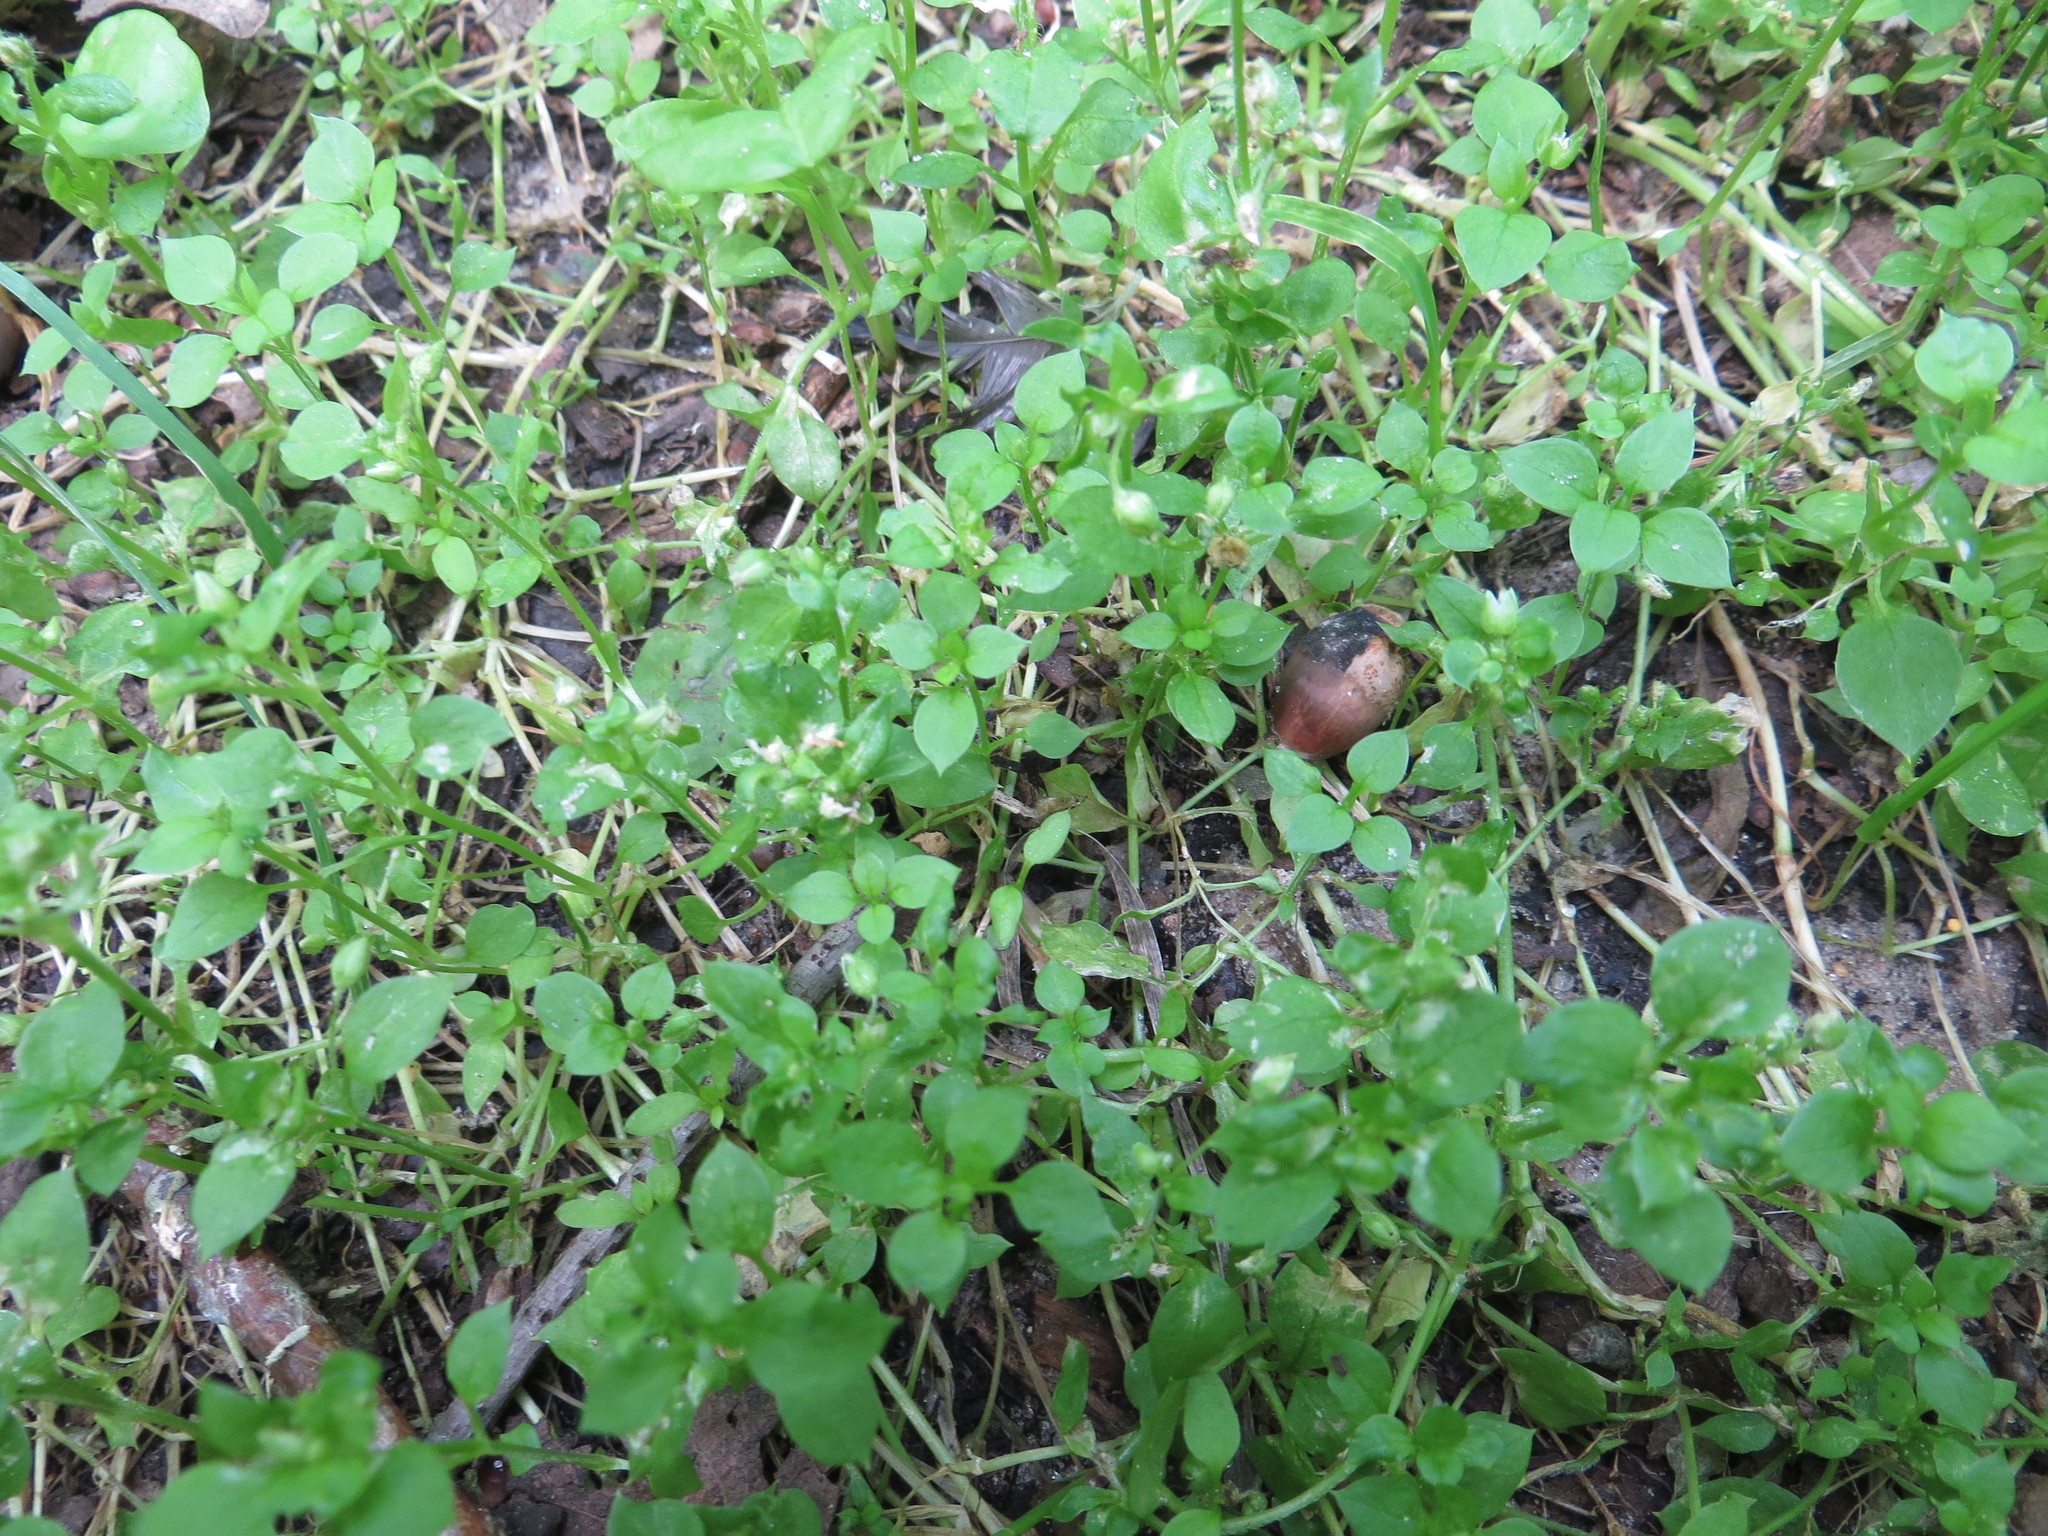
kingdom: Plantae
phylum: Tracheophyta
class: Magnoliopsida
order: Caryophyllales
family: Caryophyllaceae
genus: Stellaria
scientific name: Stellaria media
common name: Common chickweed
